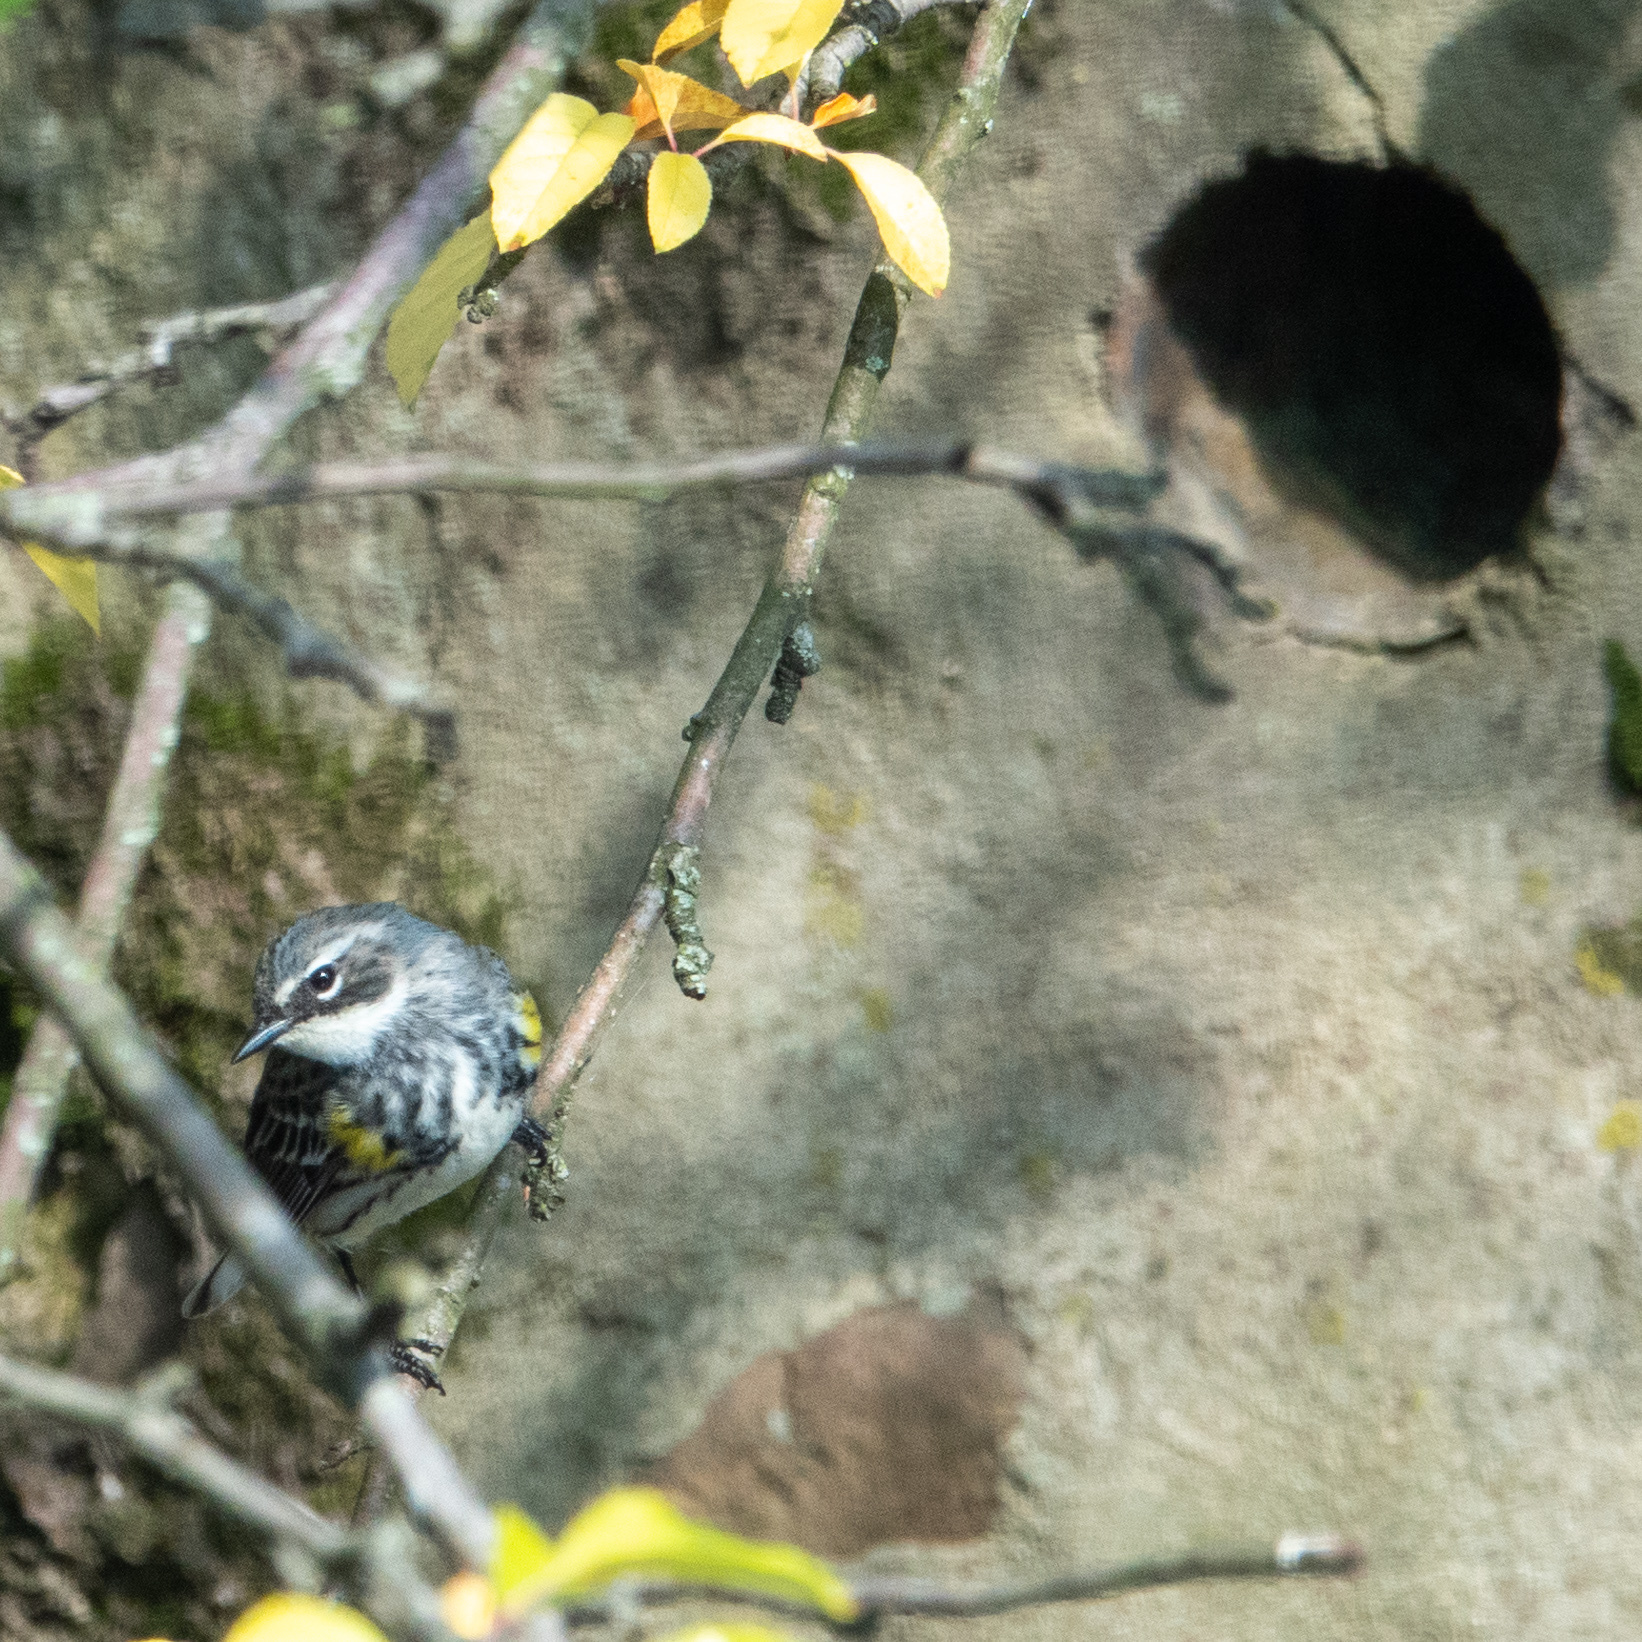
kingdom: Animalia
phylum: Chordata
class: Aves
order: Passeriformes
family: Parulidae
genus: Setophaga
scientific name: Setophaga coronata
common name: Myrtle warbler
